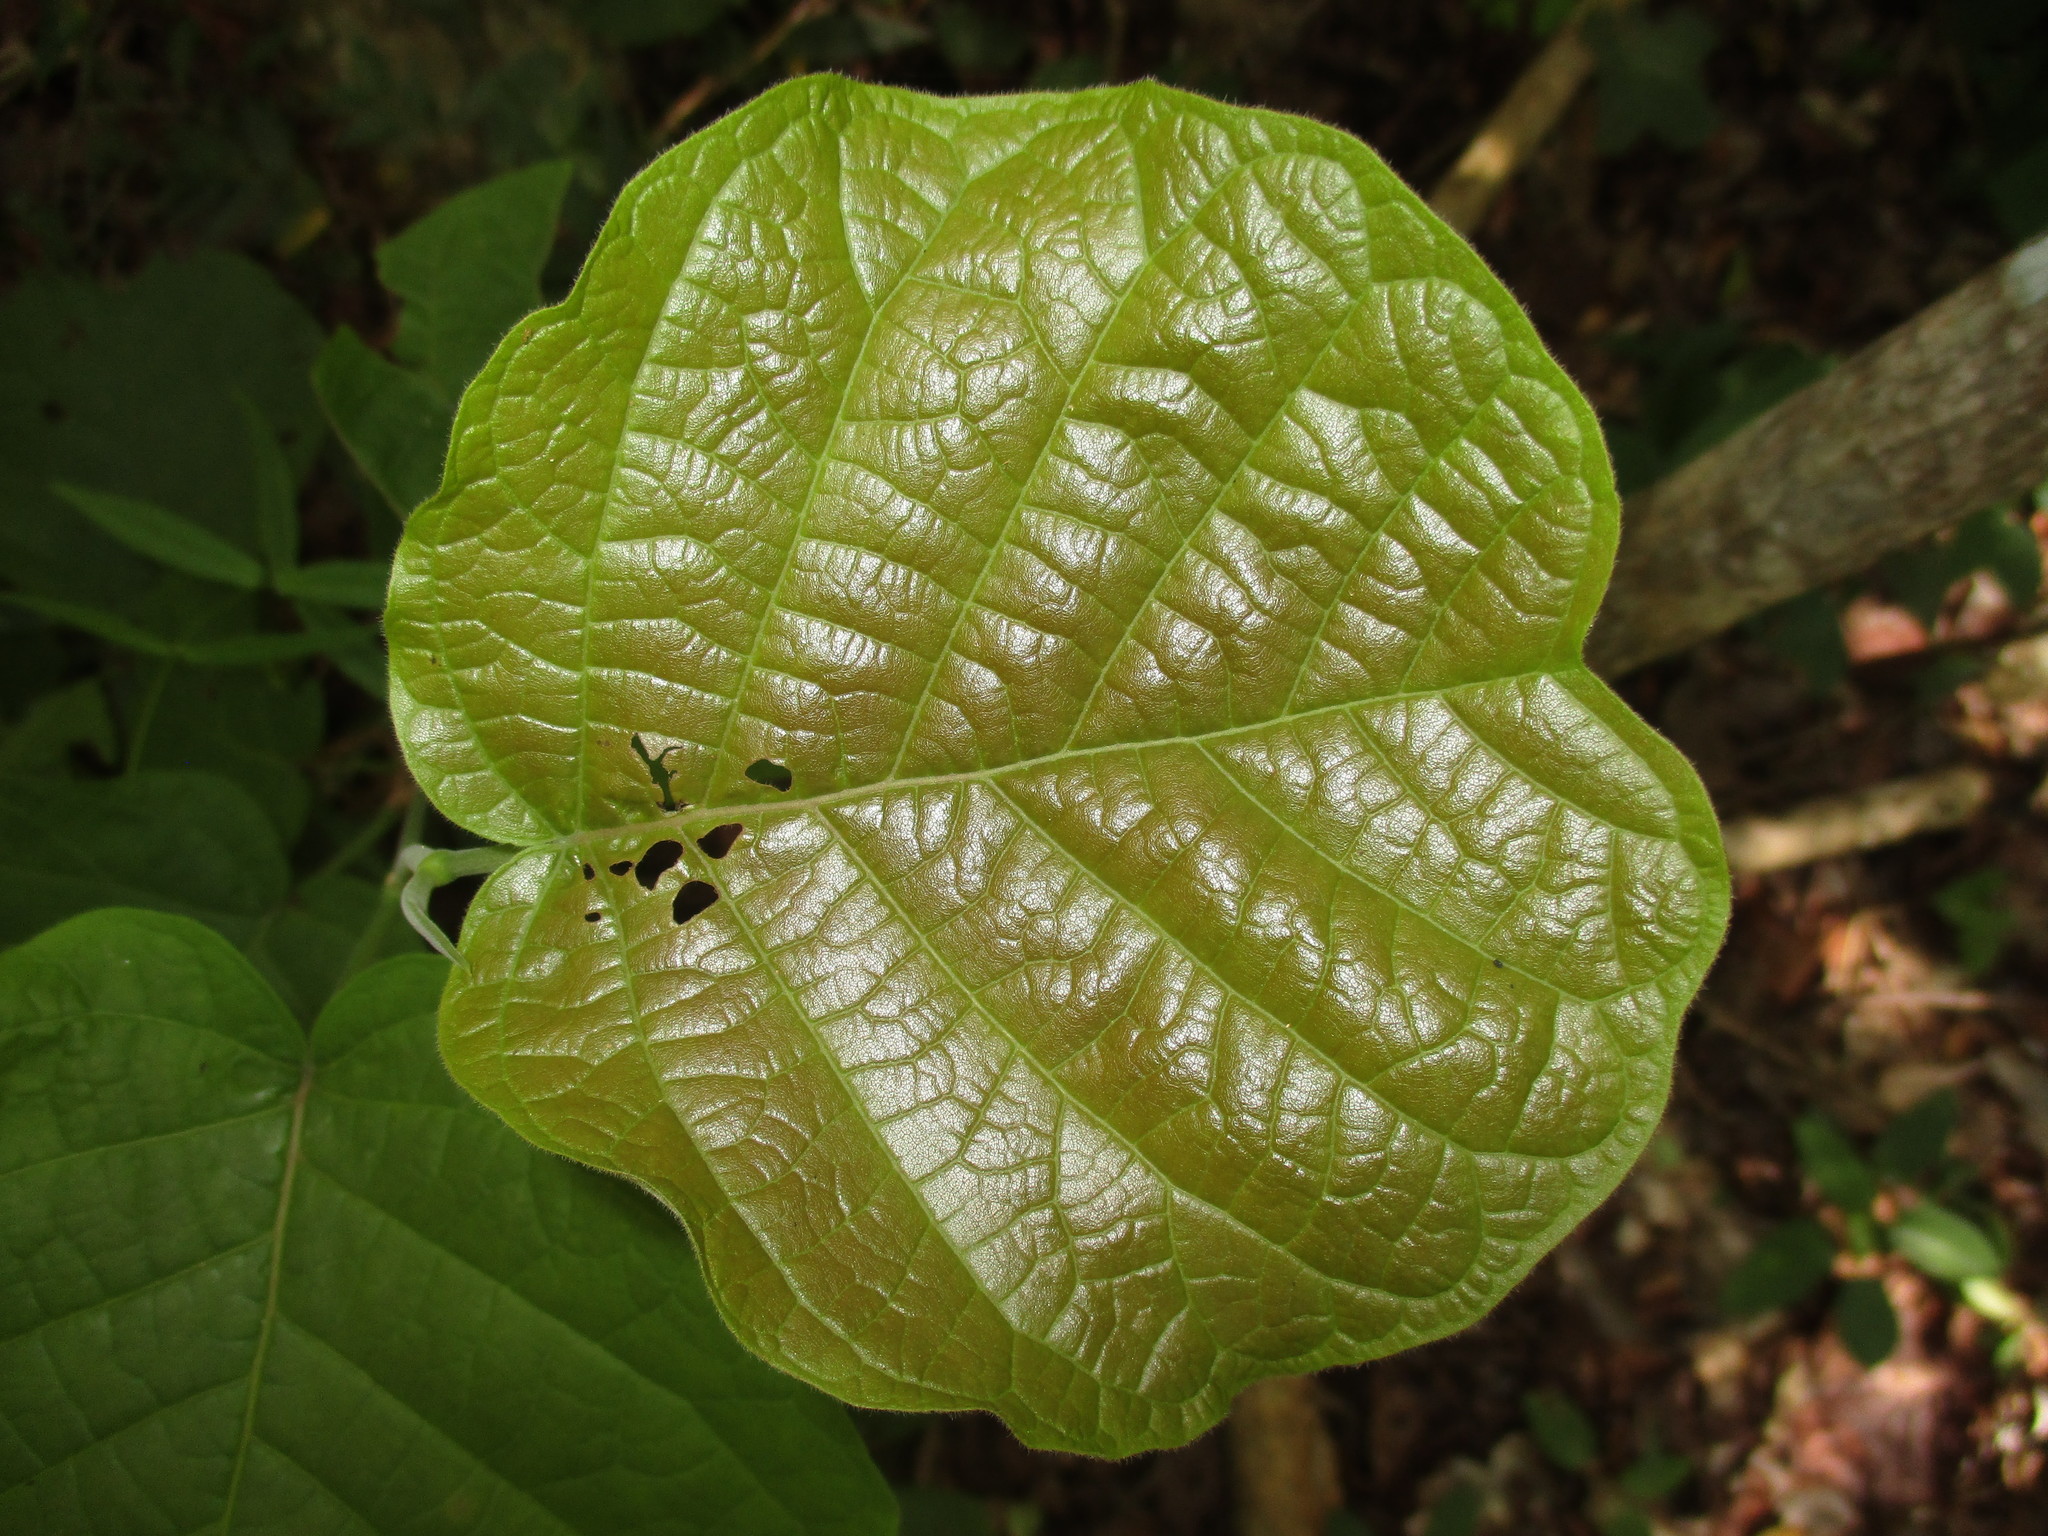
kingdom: Plantae
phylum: Tracheophyta
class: Magnoliopsida
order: Caryophyllales
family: Polygonaceae
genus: Neomillspaughia
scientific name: Neomillspaughia emarginata
